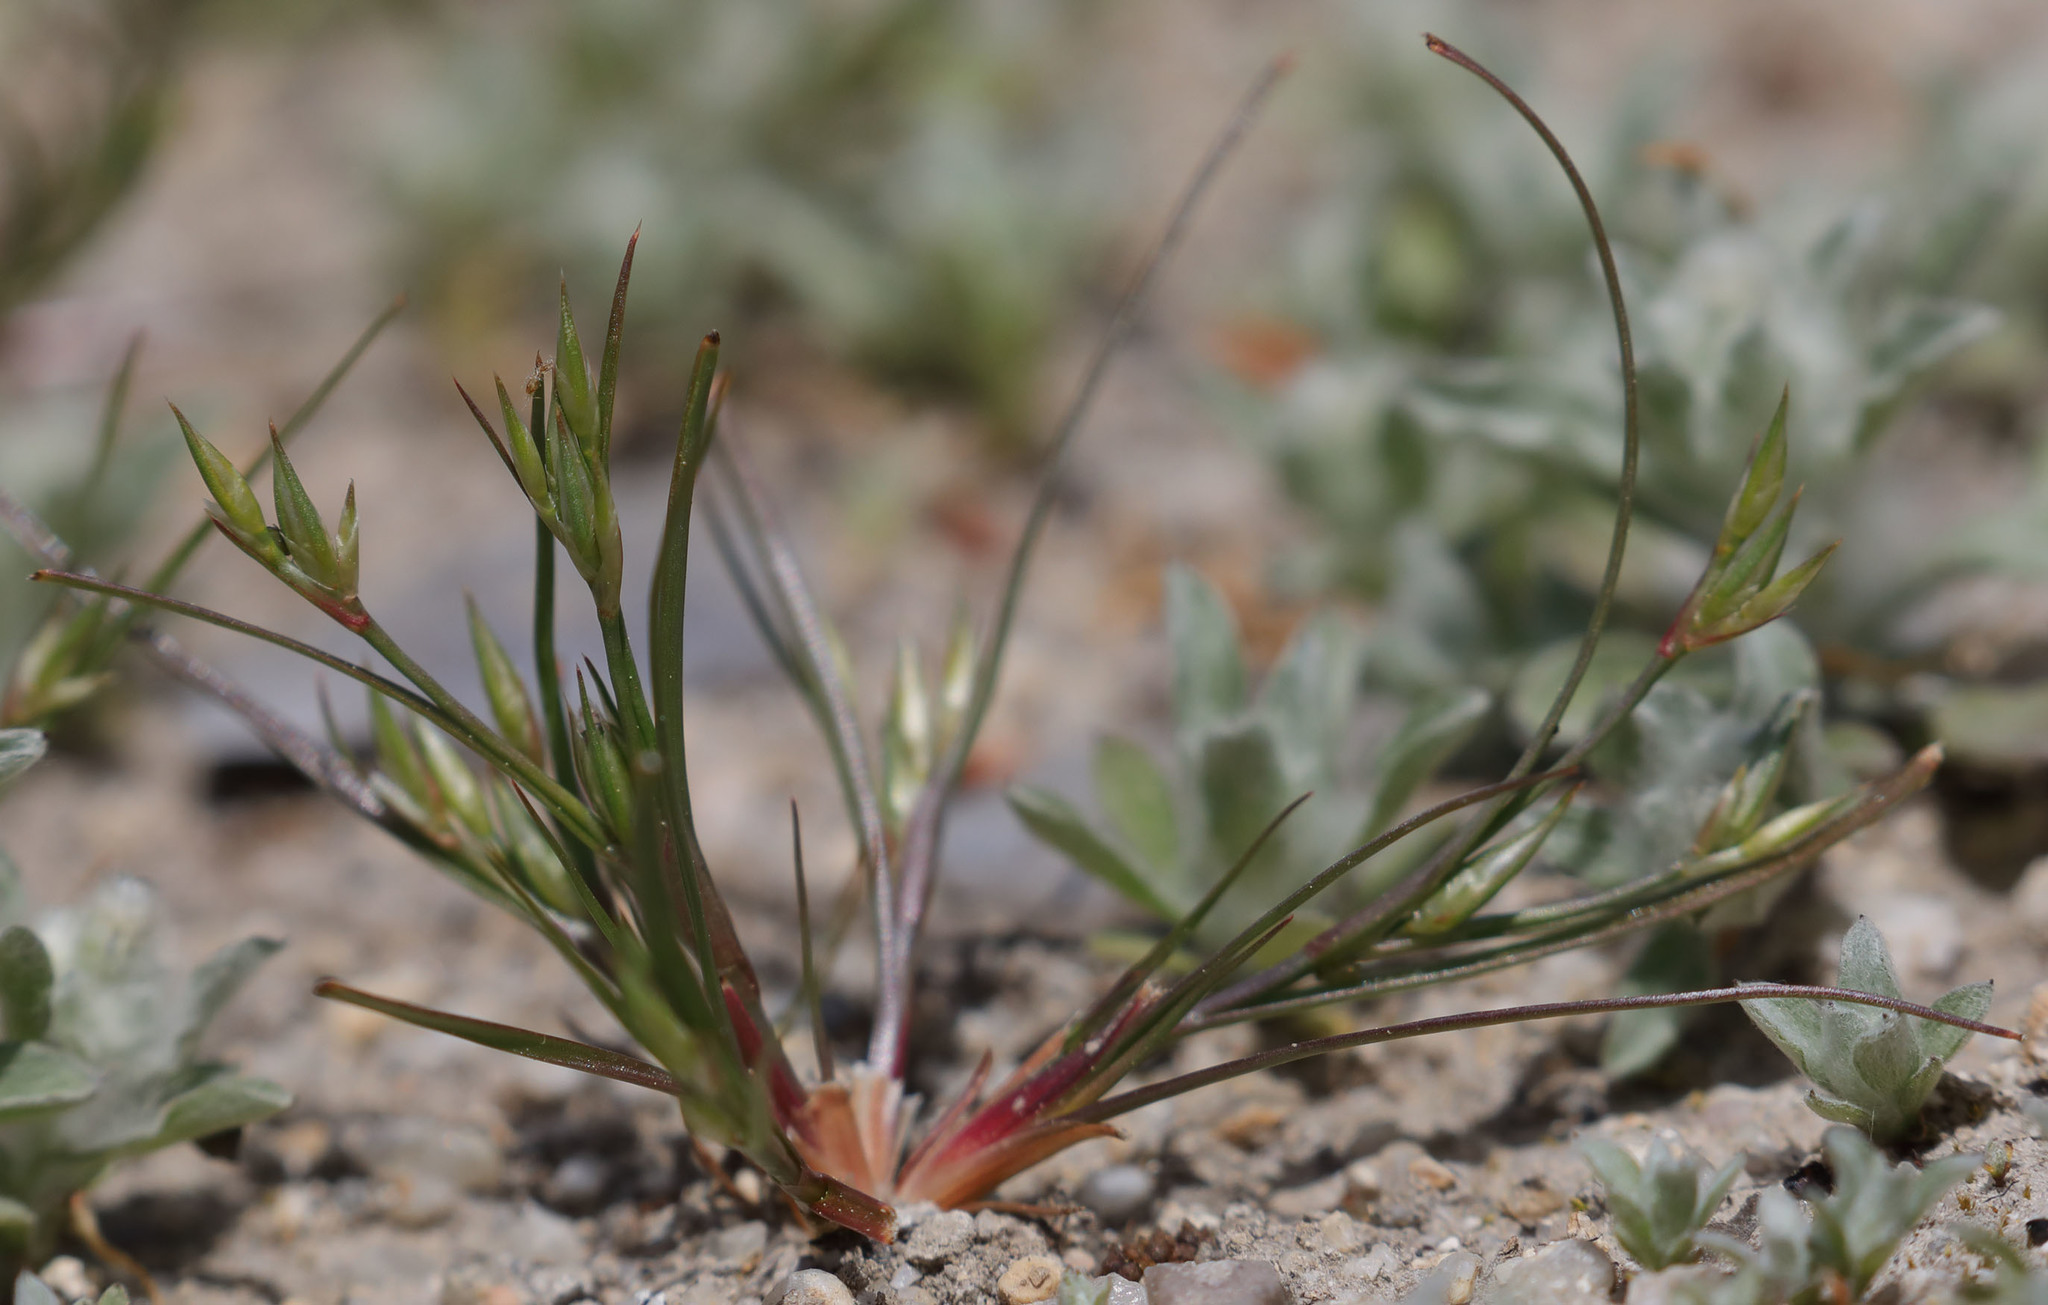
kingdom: Plantae
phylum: Tracheophyta
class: Liliopsida
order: Poales
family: Juncaceae
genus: Juncus
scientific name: Juncus bufonius
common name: Toad rush
